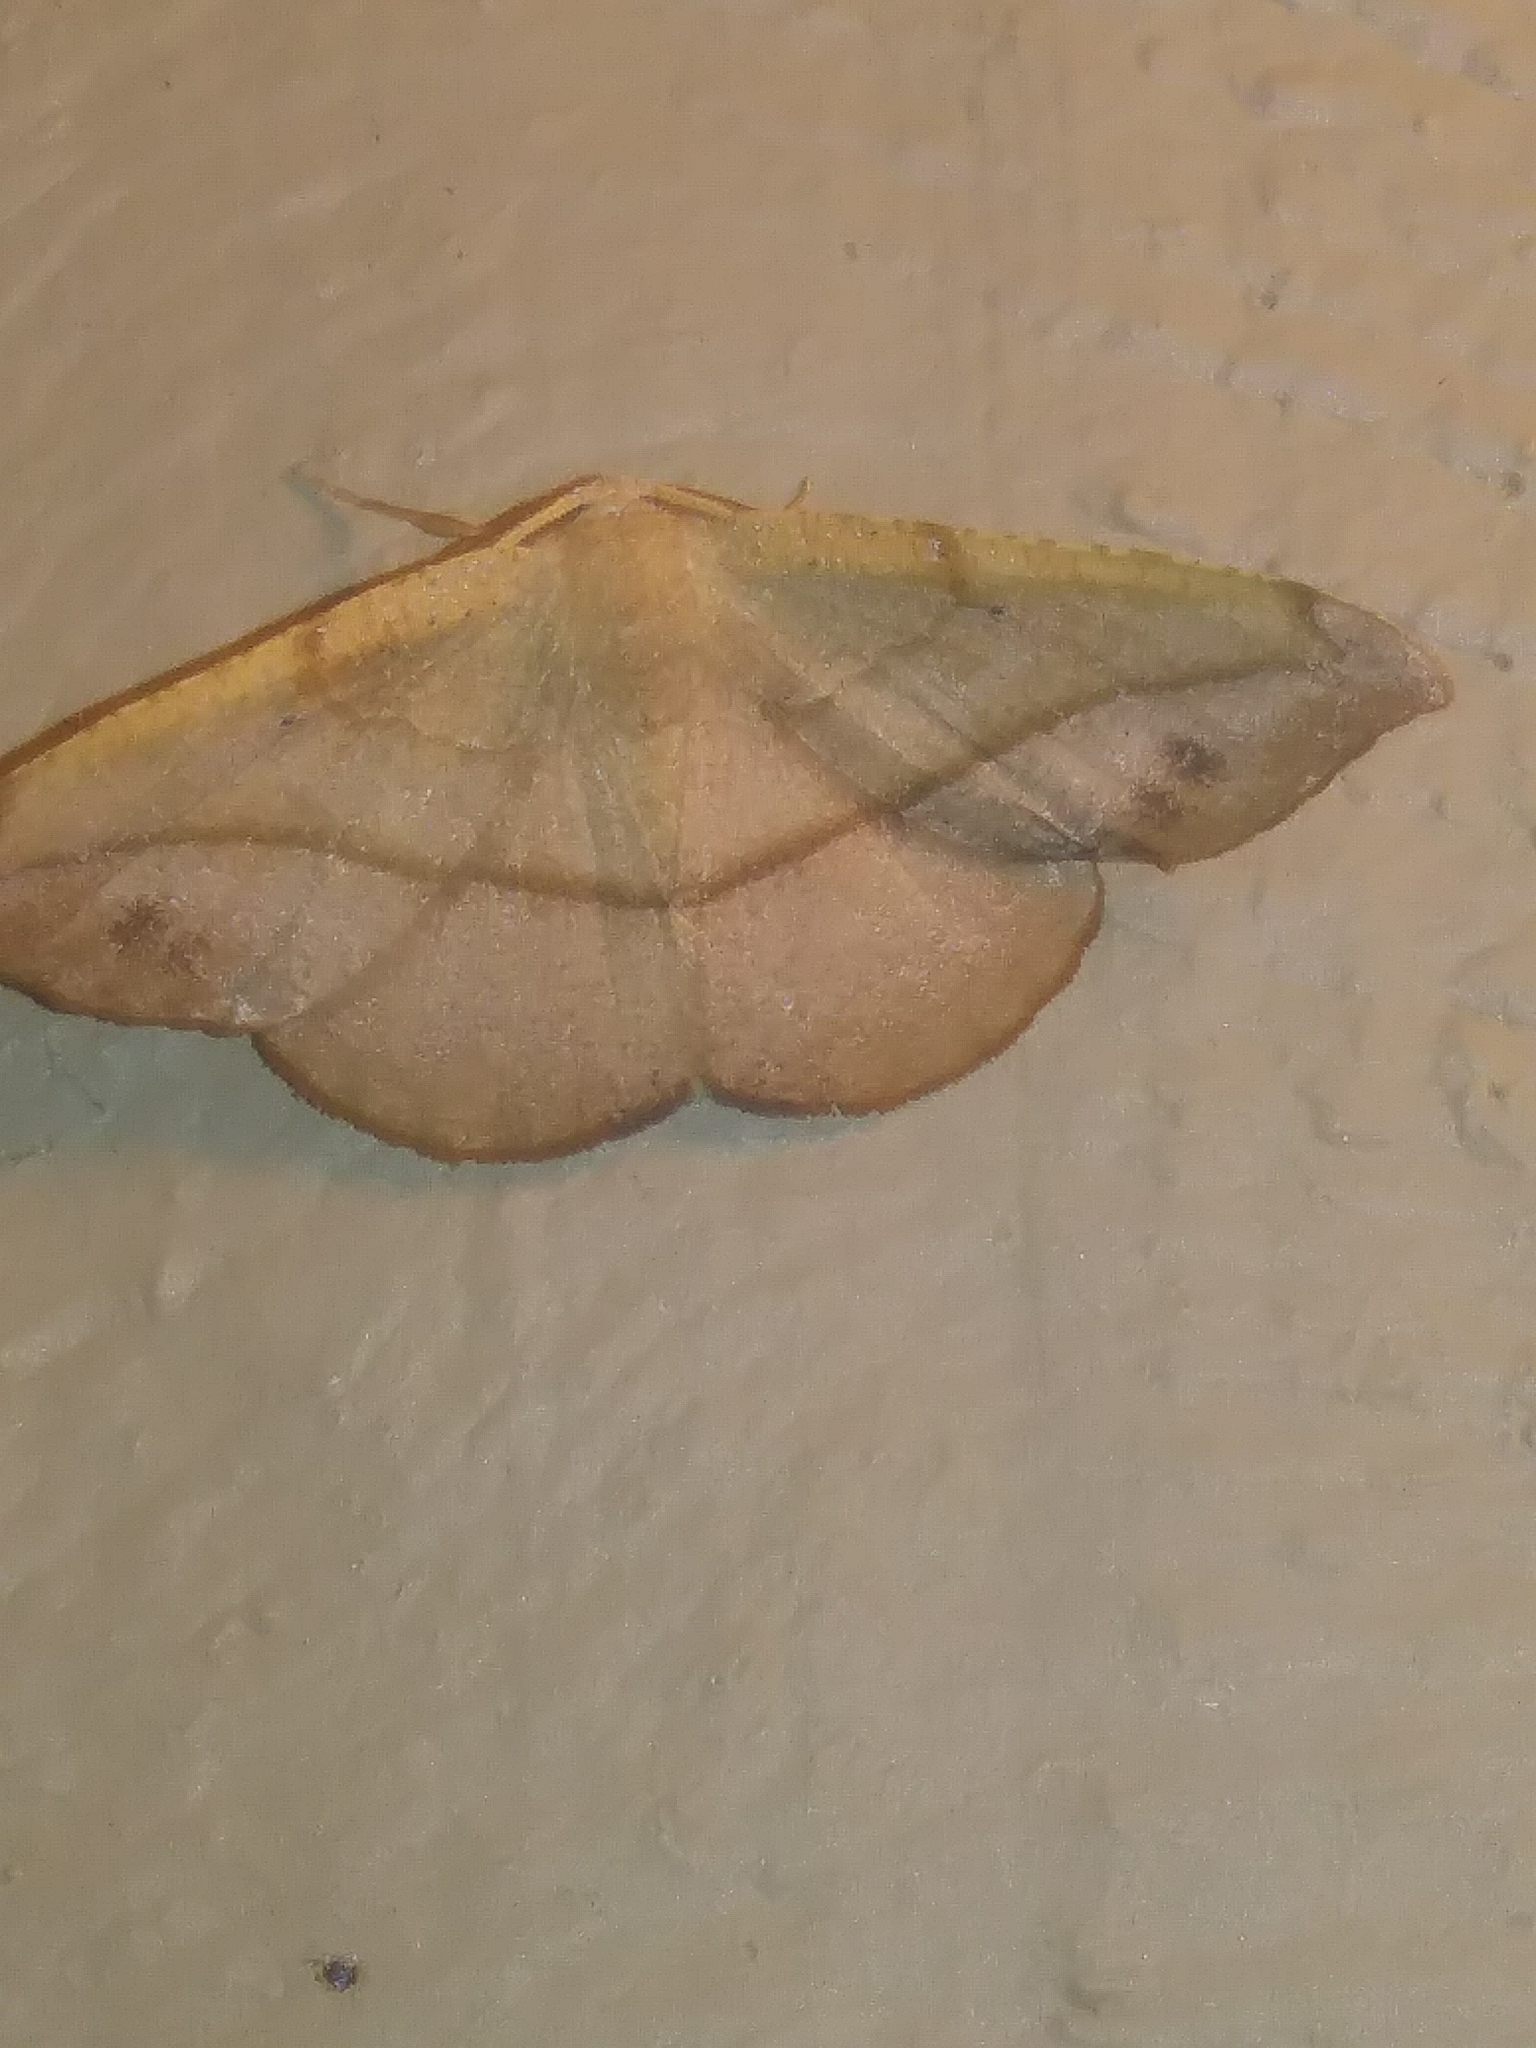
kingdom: Animalia
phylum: Arthropoda
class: Insecta
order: Lepidoptera
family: Geometridae
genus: Patalene
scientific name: Patalene olyzonaria
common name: Juniper geometer moth
